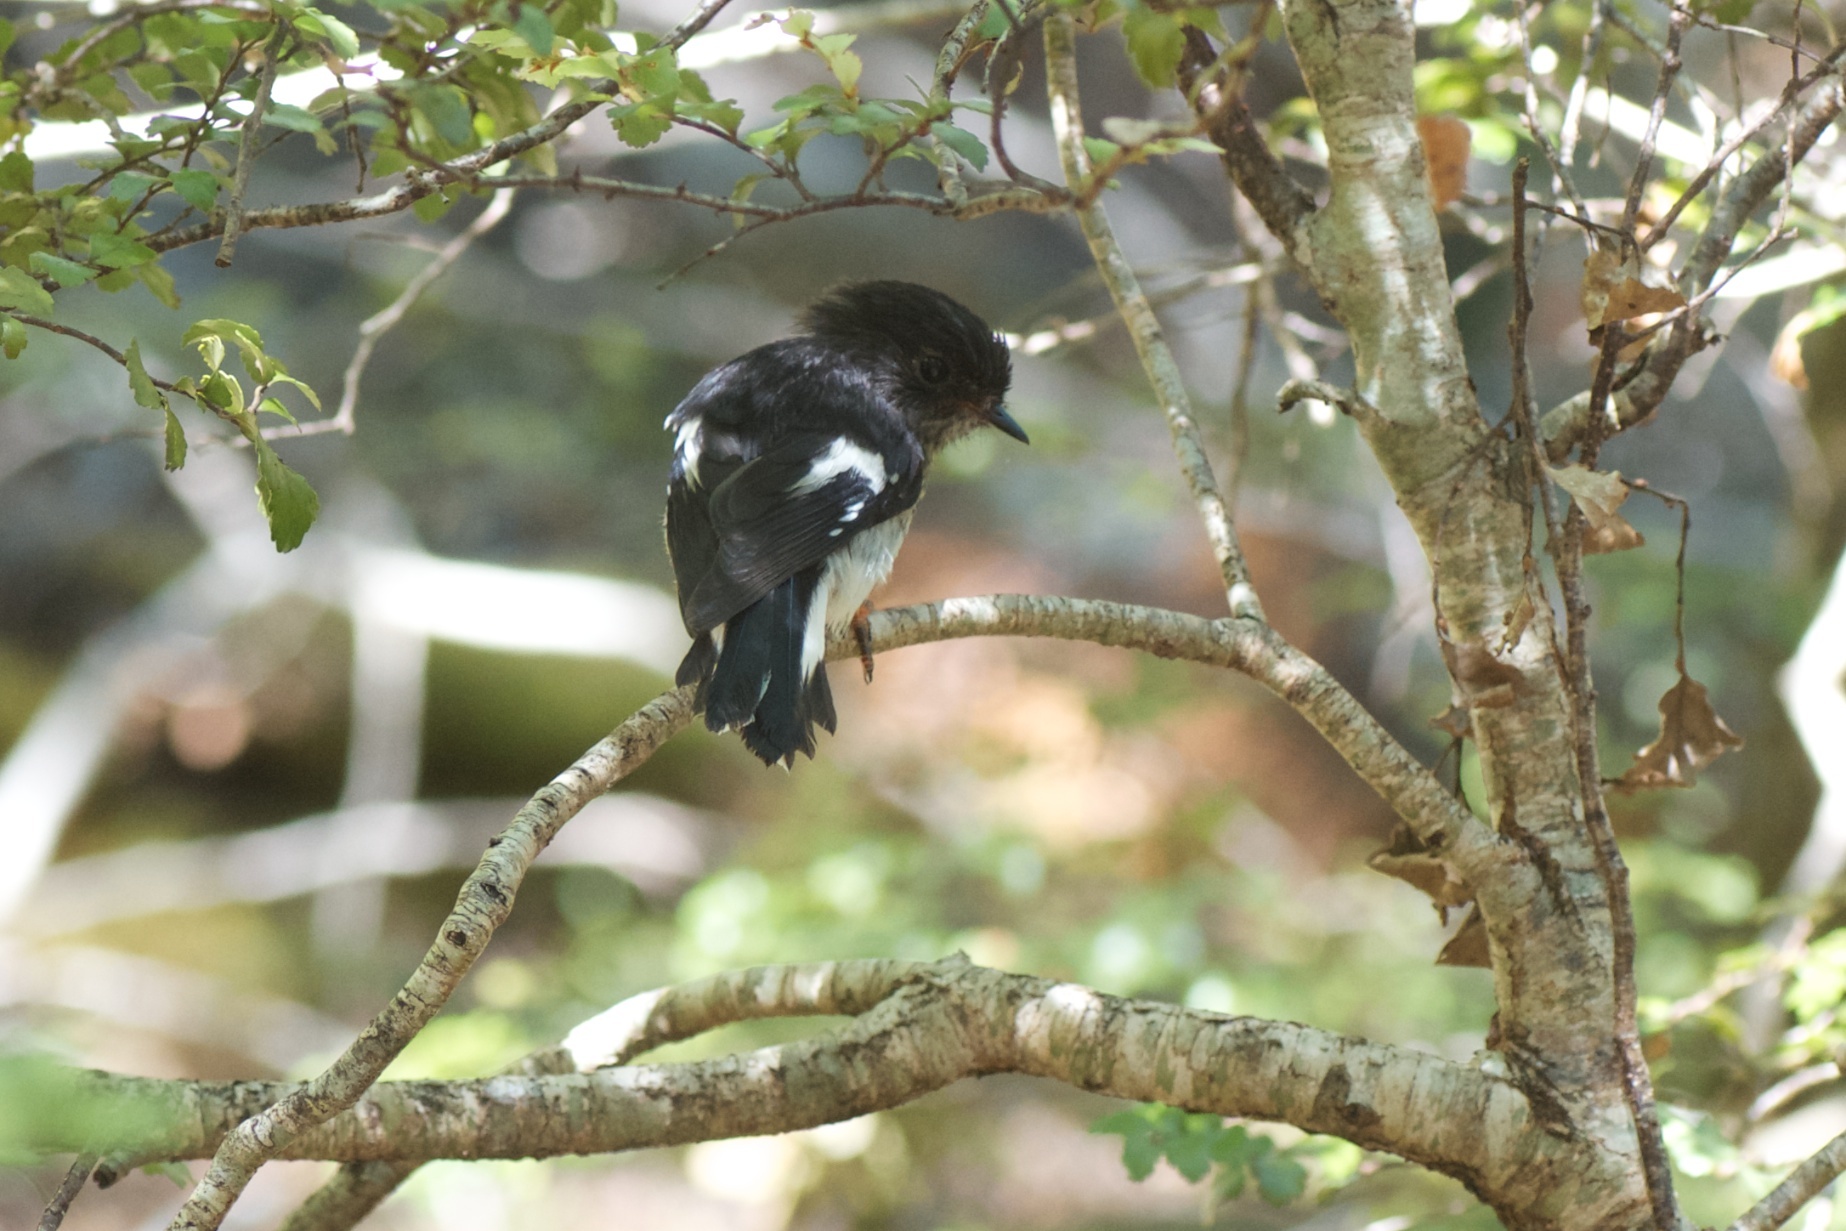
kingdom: Animalia
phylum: Chordata
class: Aves
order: Passeriformes
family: Petroicidae
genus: Petroica
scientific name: Petroica macrocephala
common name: Tomtit
